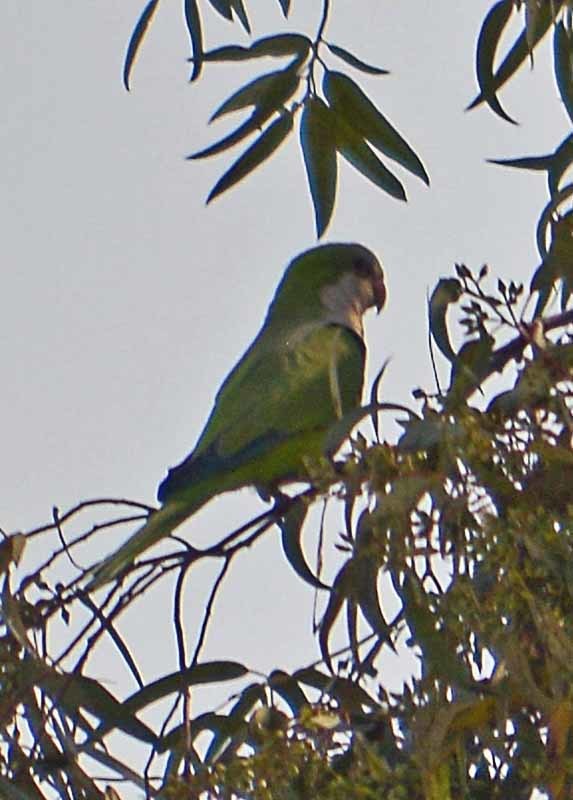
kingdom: Animalia
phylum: Chordata
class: Aves
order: Psittaciformes
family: Psittacidae
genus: Myiopsitta
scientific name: Myiopsitta monachus
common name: Monk parakeet
